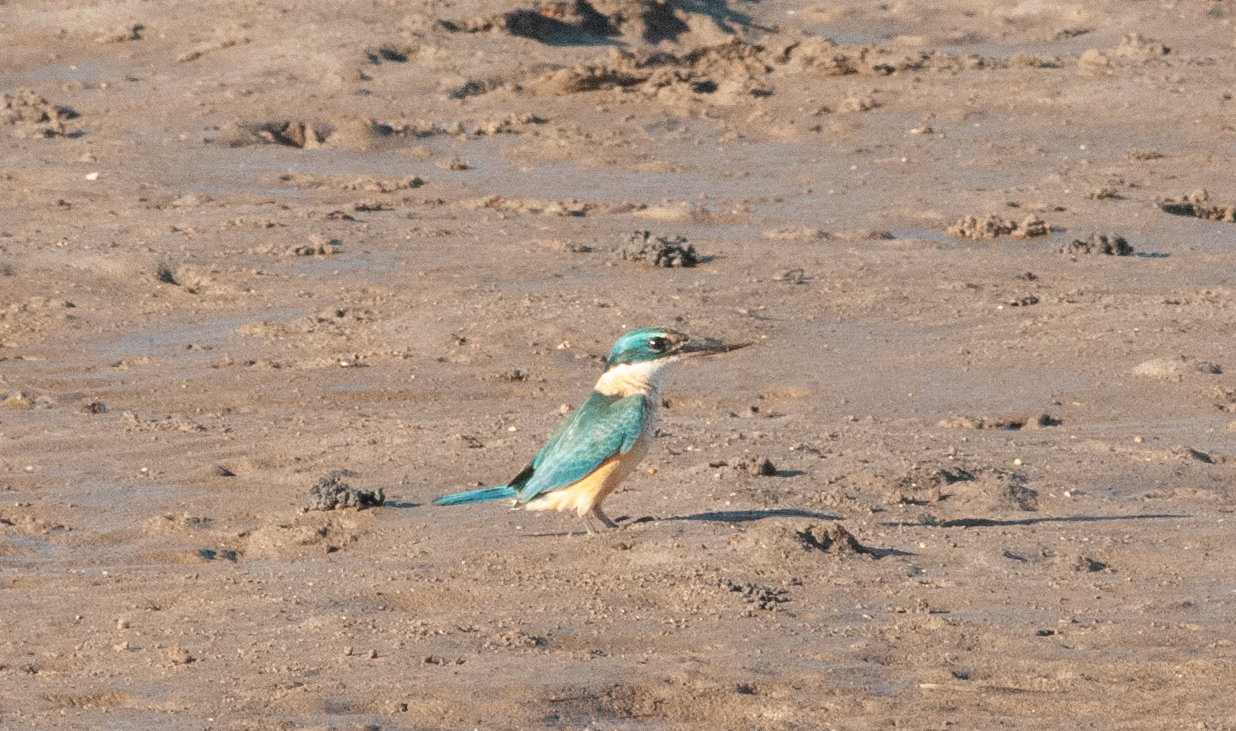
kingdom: Animalia
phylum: Chordata
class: Aves
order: Coraciiformes
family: Alcedinidae
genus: Todiramphus
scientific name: Todiramphus sanctus
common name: Sacred kingfisher
